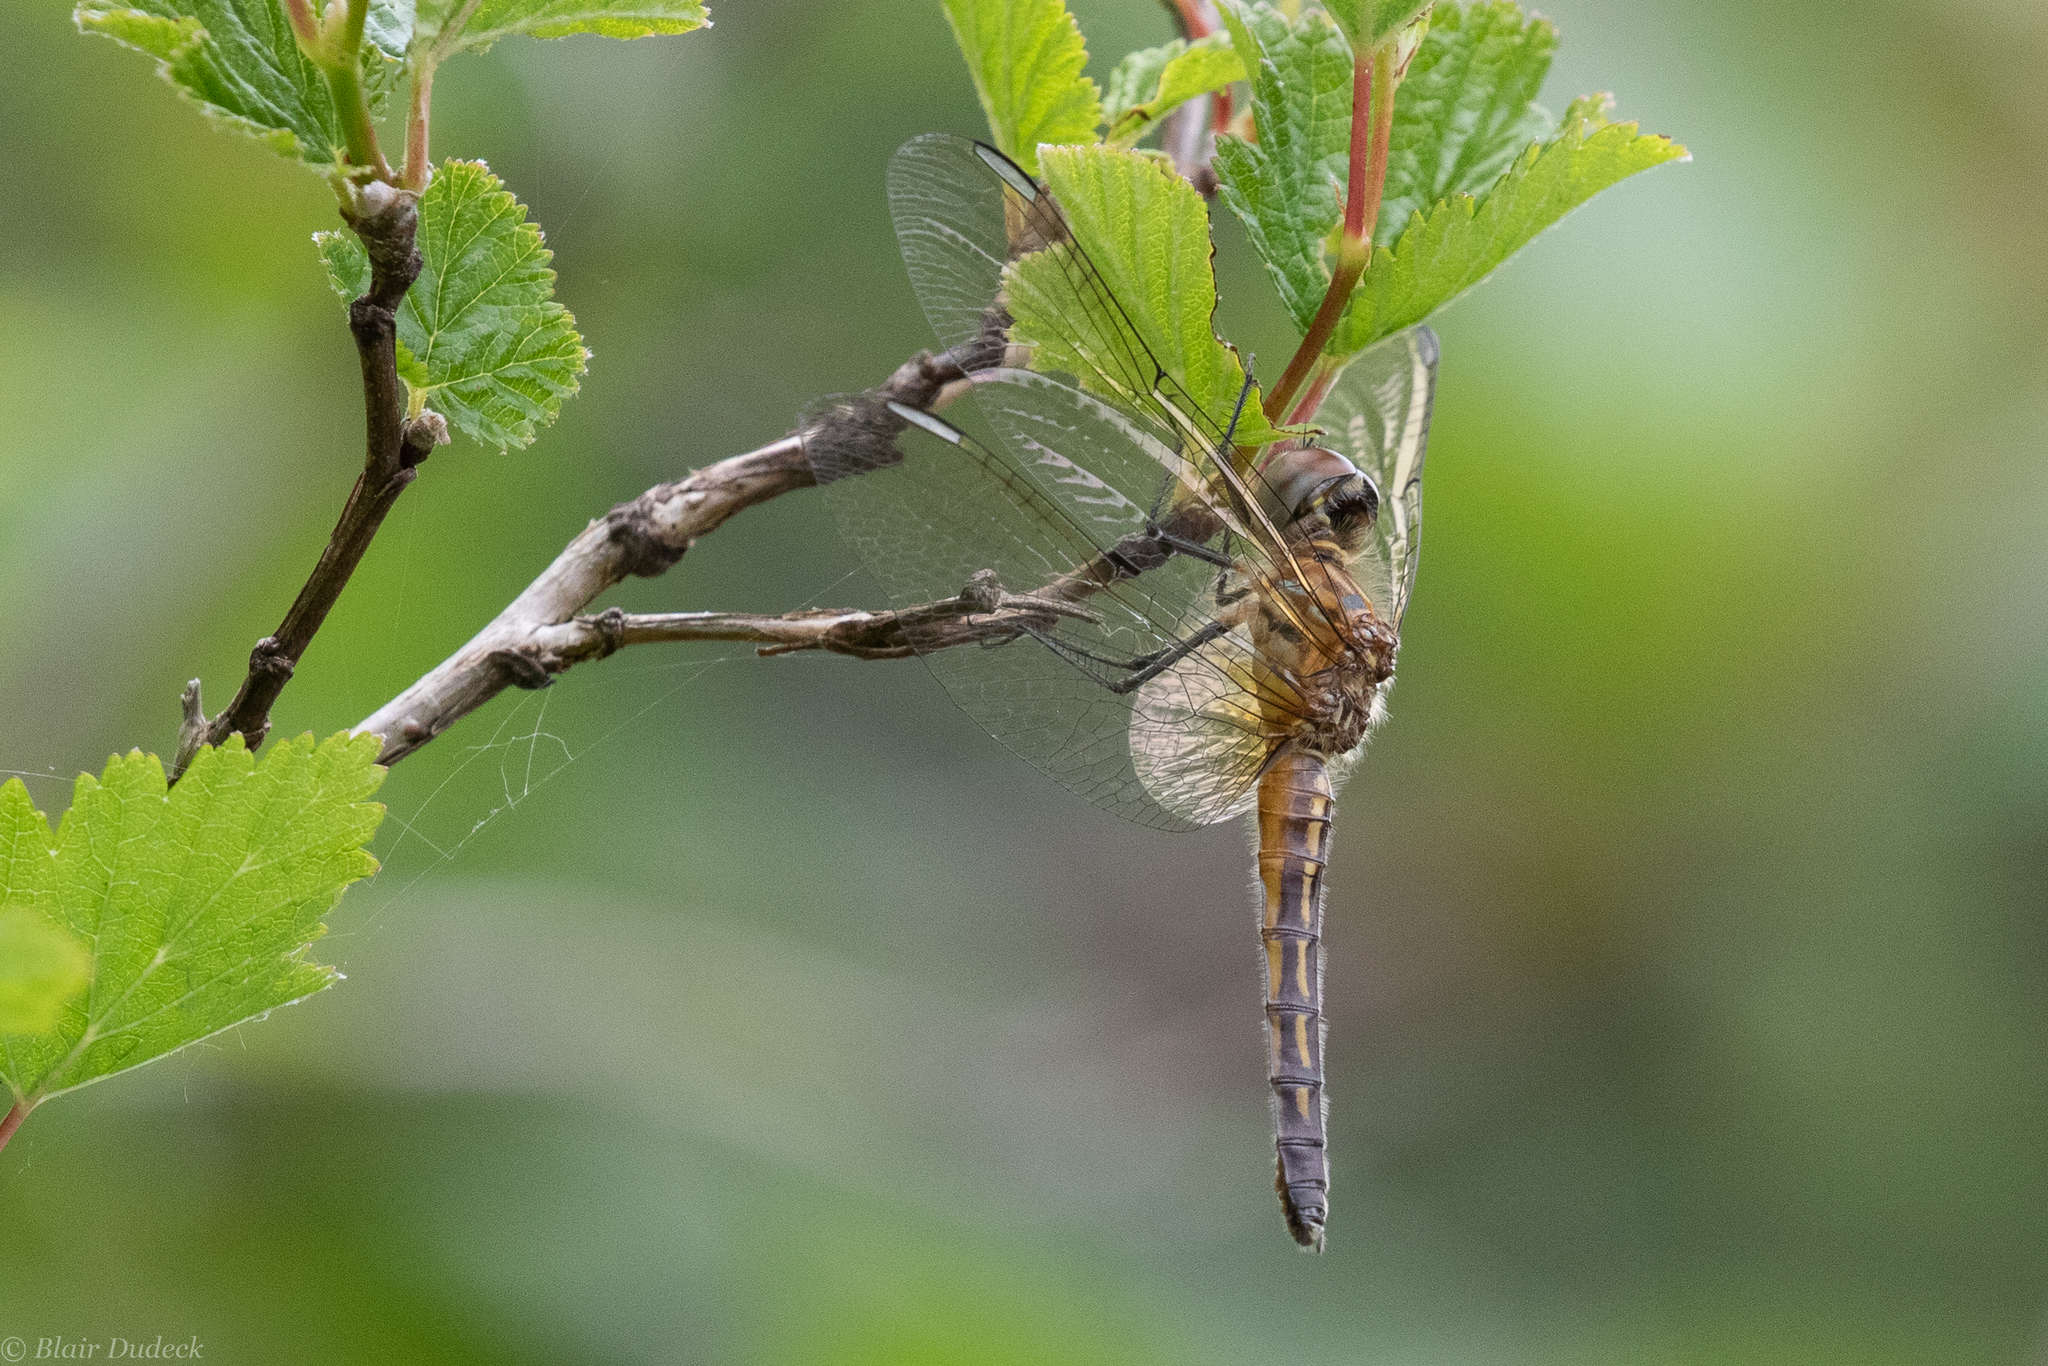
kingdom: Animalia
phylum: Arthropoda
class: Insecta
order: Odonata
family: Libellulidae
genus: Pachydiplax
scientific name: Pachydiplax longipennis
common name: Blue dasher
